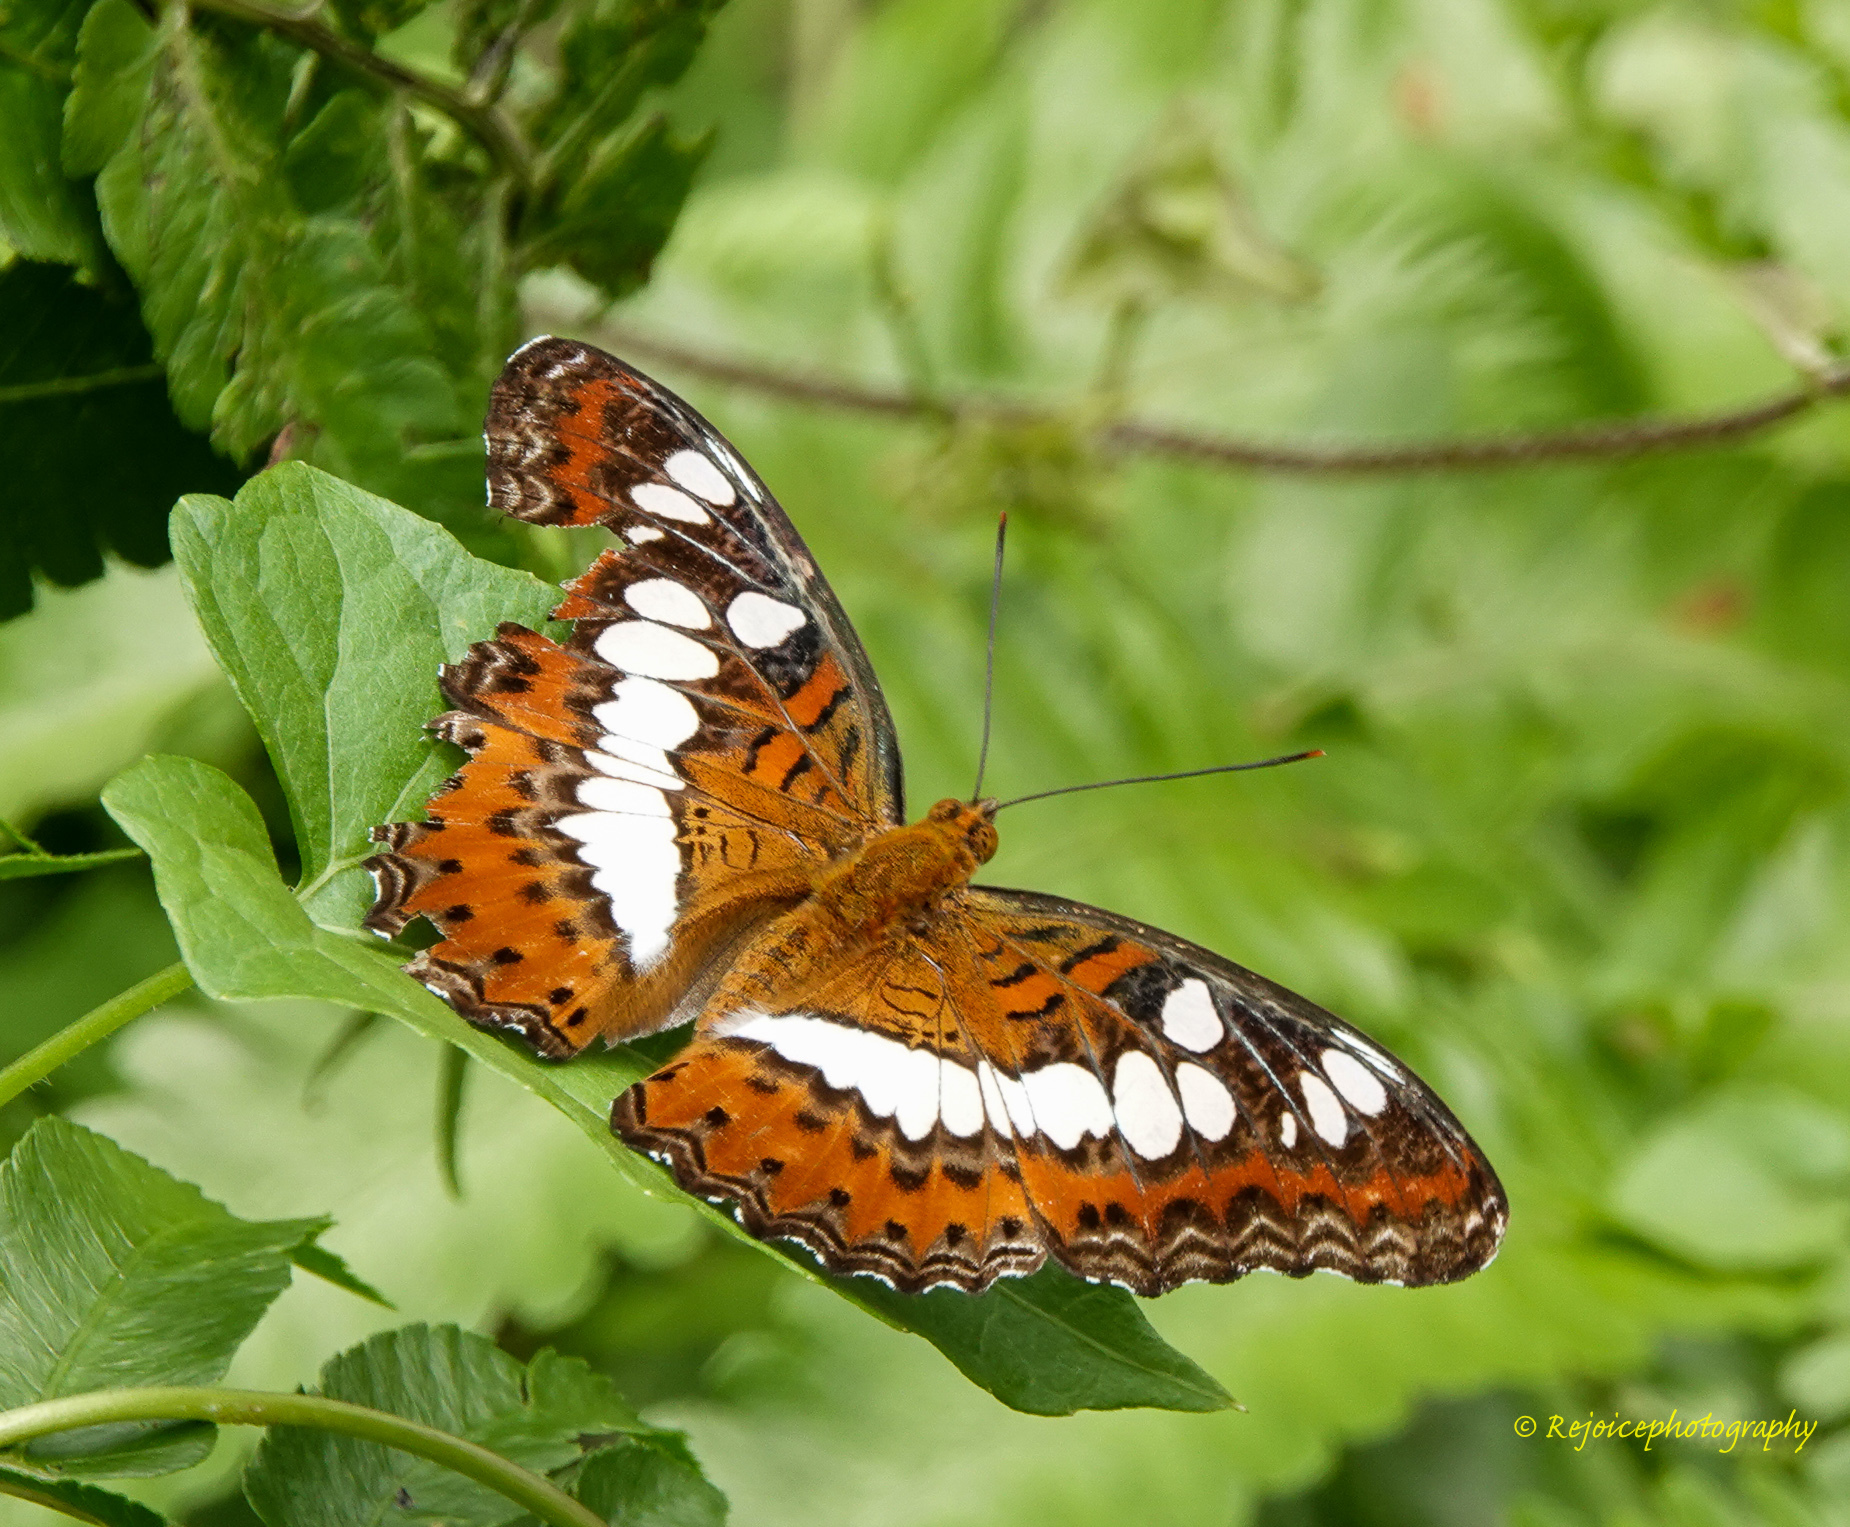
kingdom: Animalia
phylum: Arthropoda
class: Insecta
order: Lepidoptera
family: Nymphalidae
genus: Limenitis
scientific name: Limenitis Moduza procris
